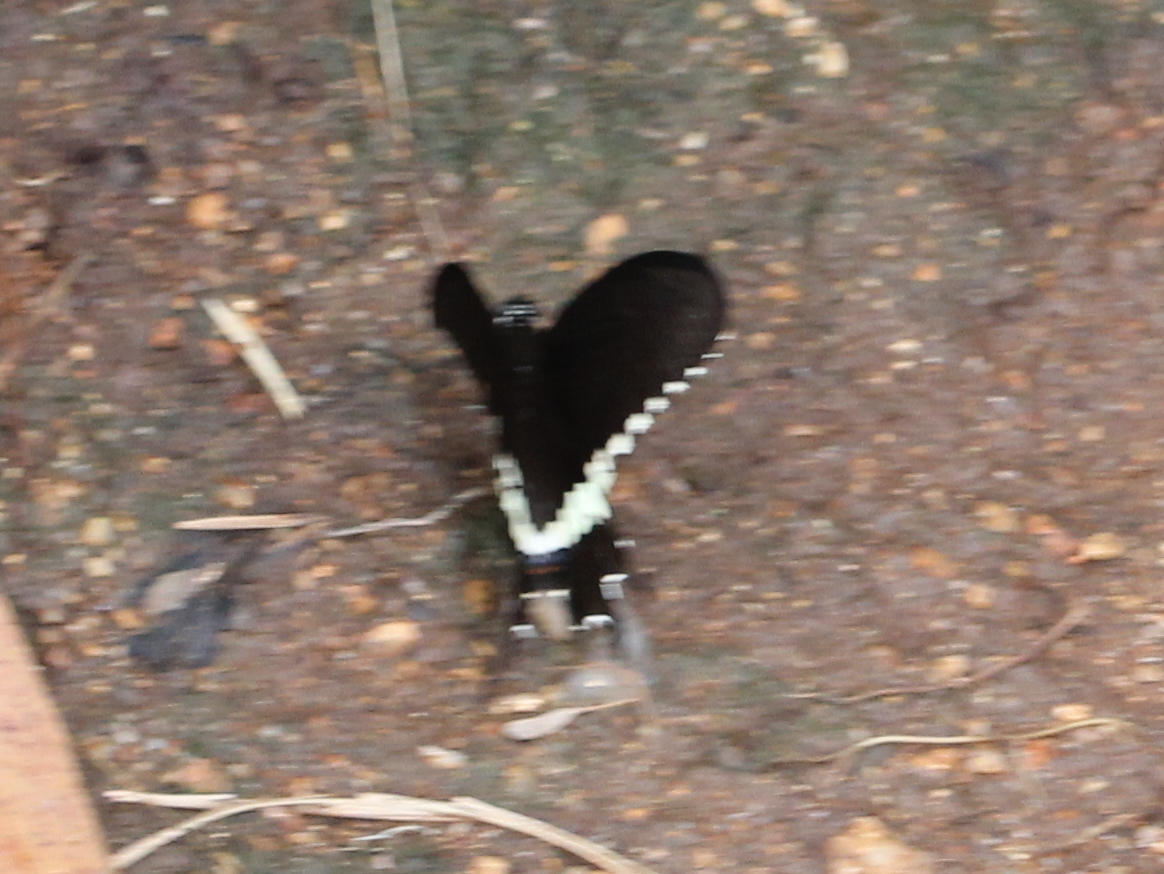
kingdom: Animalia
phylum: Arthropoda
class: Insecta
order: Lepidoptera
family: Papilionidae
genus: Papilio
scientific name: Papilio polytes
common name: Common mormon
